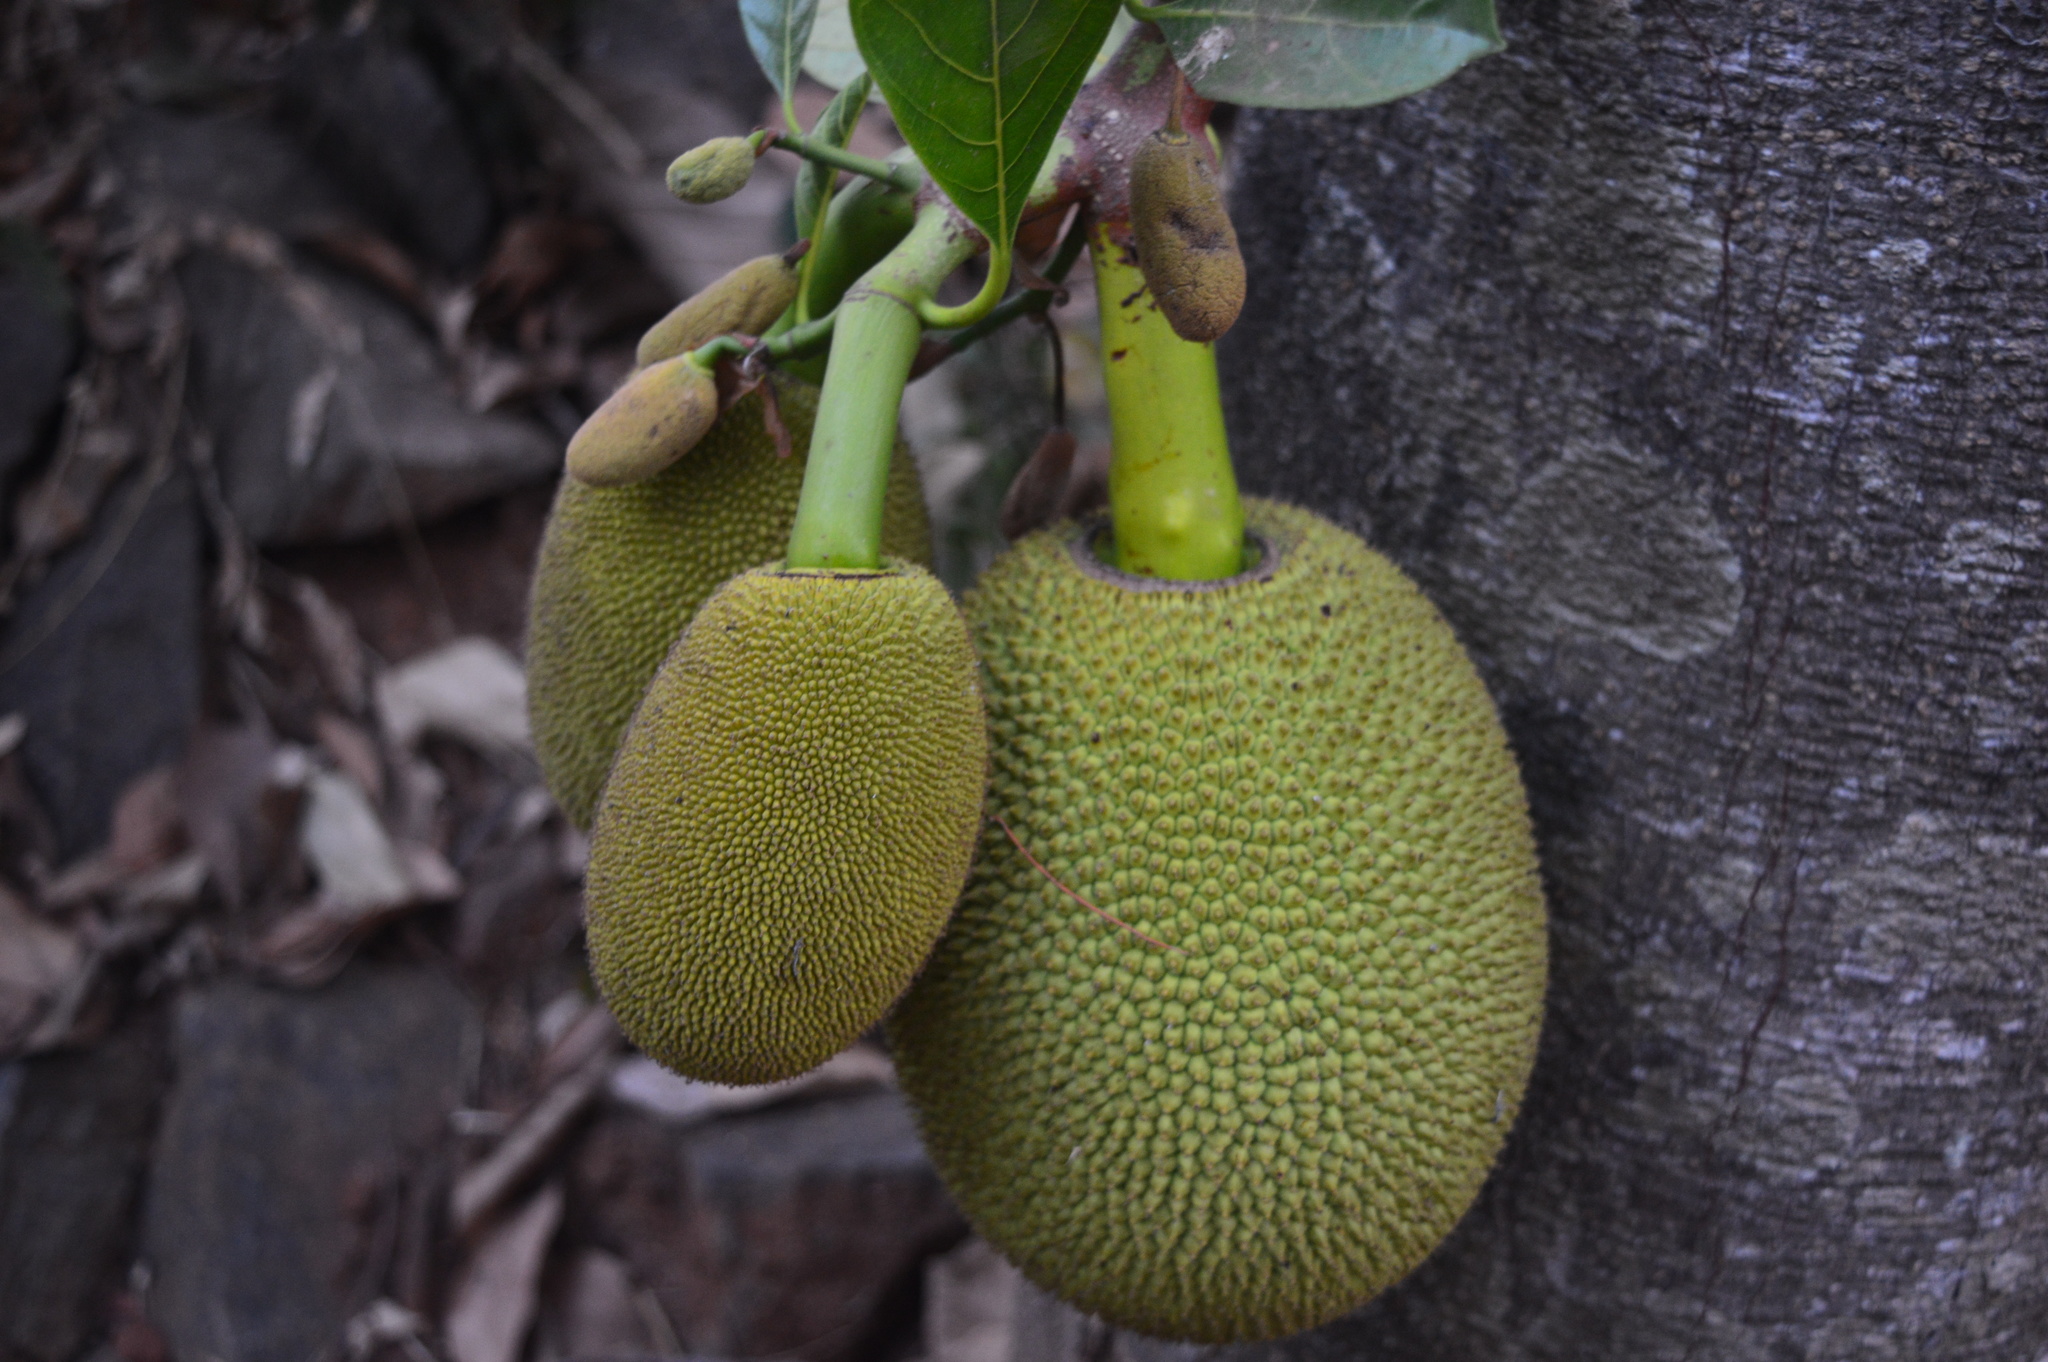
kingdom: Plantae
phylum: Tracheophyta
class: Magnoliopsida
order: Rosales
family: Moraceae
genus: Artocarpus
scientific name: Artocarpus heterophyllus
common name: Jackfruit
